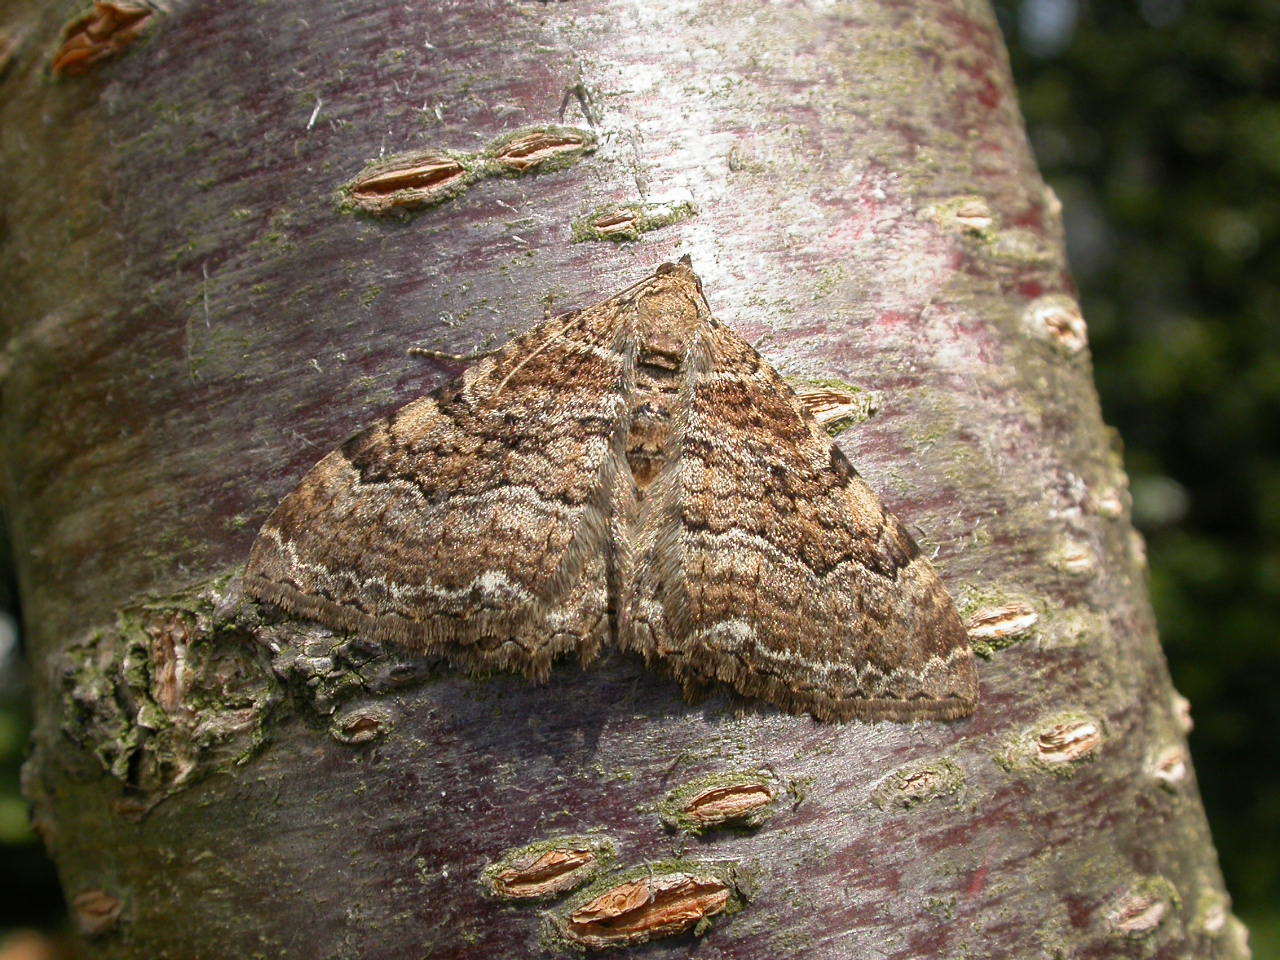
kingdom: Animalia
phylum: Arthropoda
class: Insecta
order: Lepidoptera
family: Geometridae
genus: Rheumaptera
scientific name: Rheumaptera Hydria cervinalis
